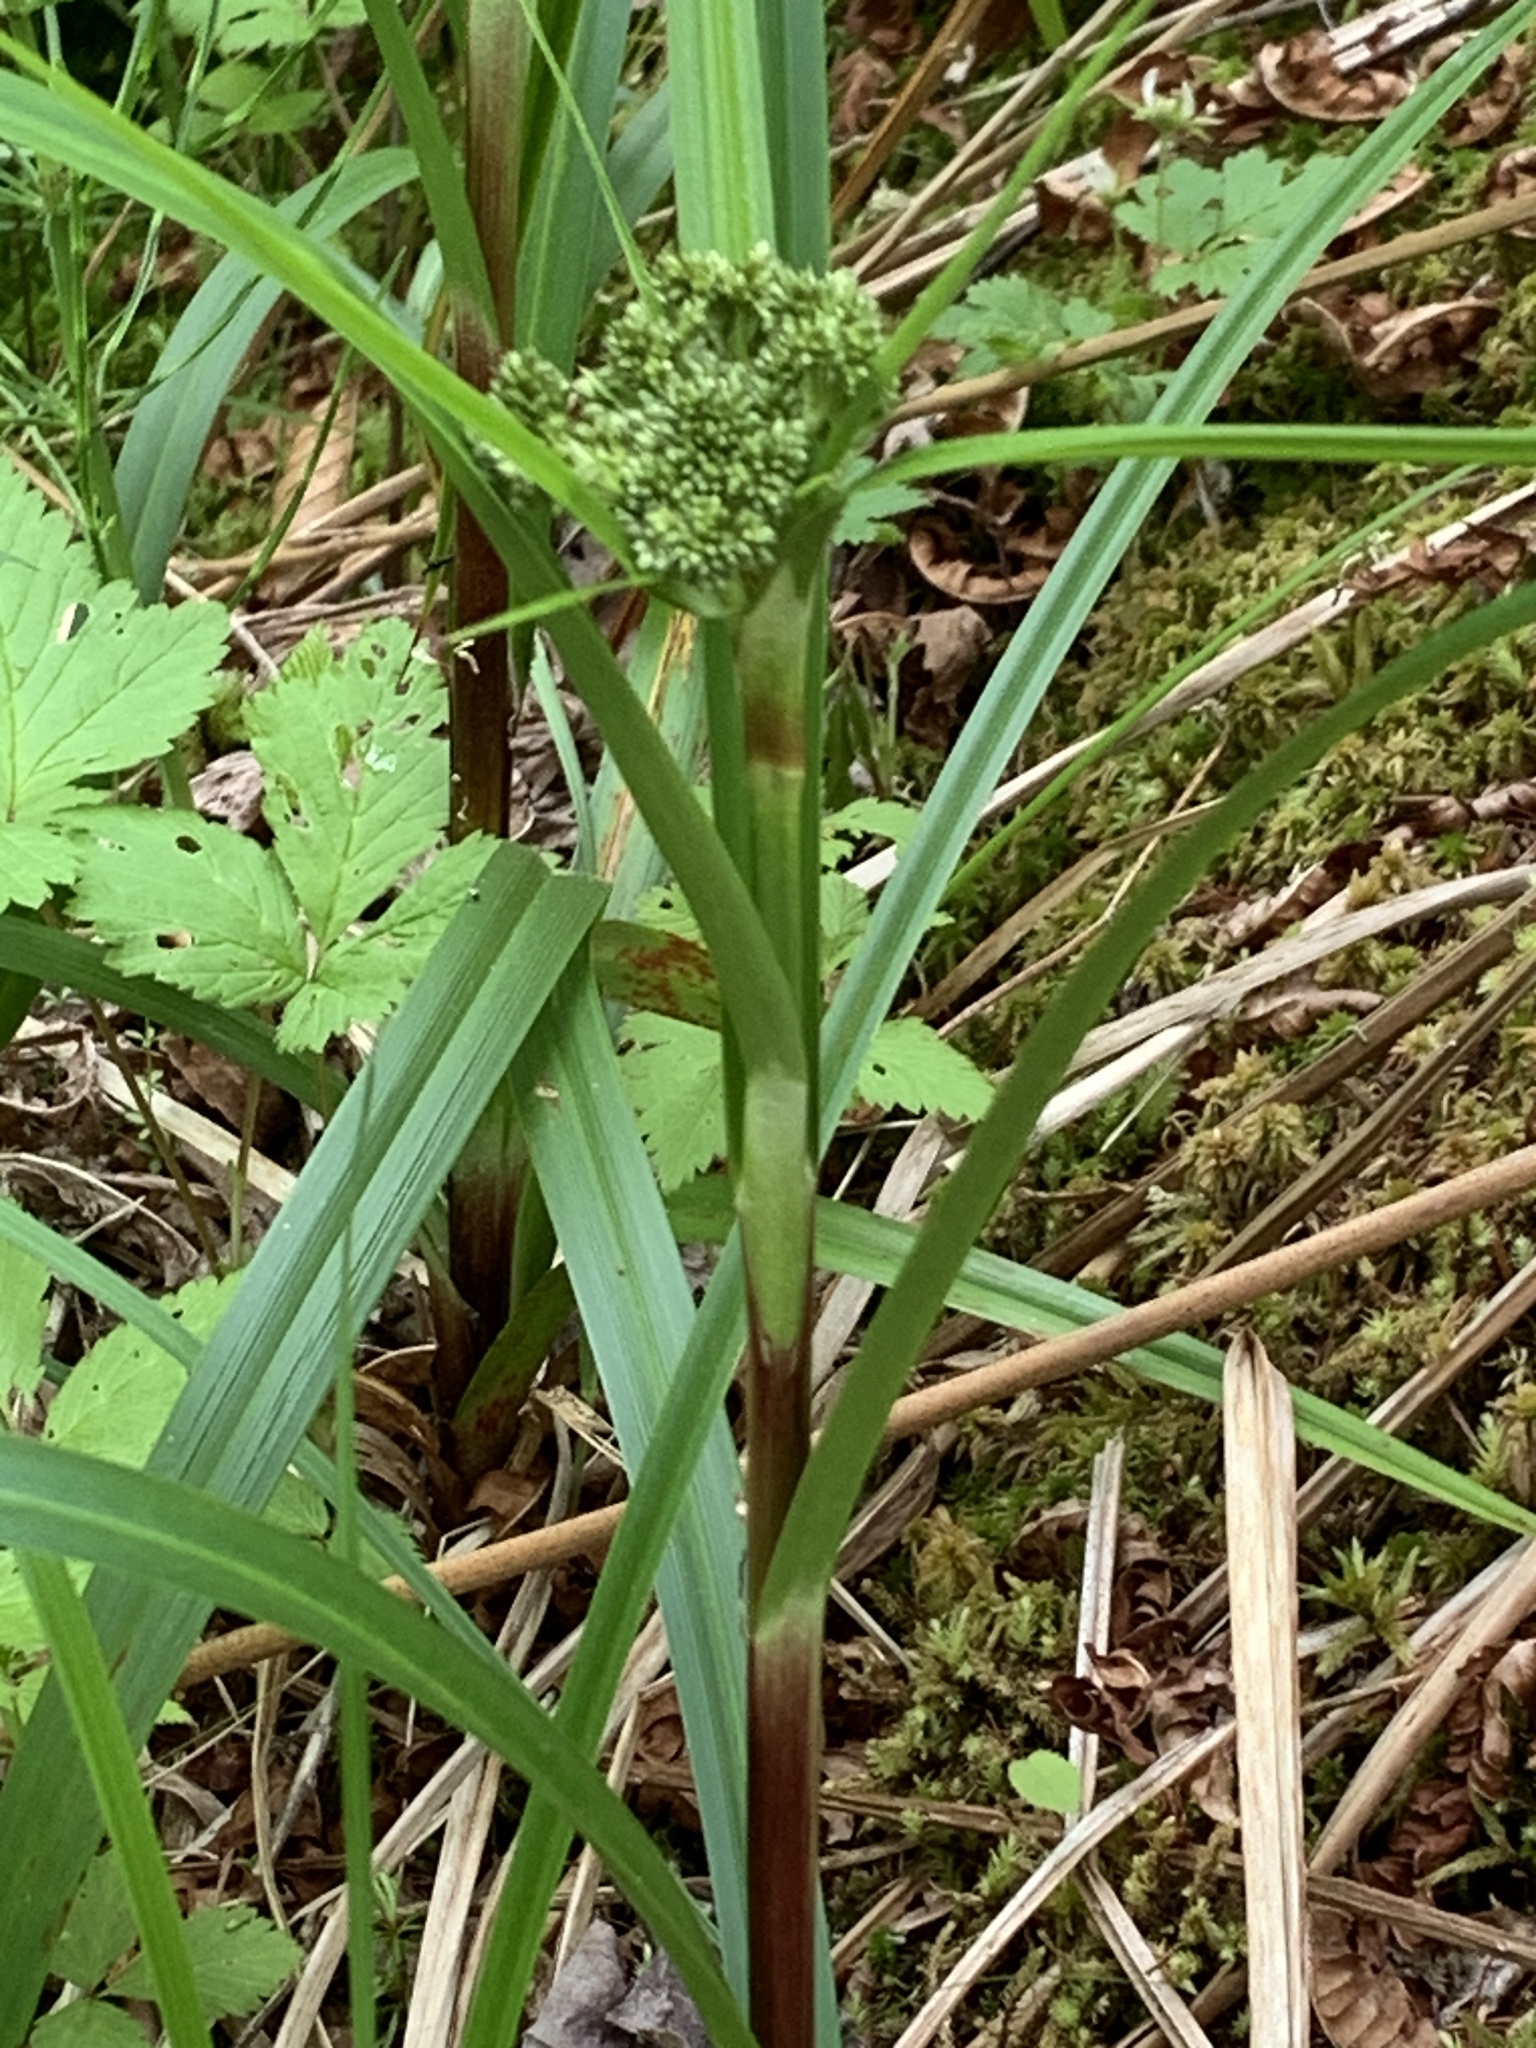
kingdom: Plantae
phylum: Tracheophyta
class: Liliopsida
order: Poales
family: Cyperaceae
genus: Scirpus
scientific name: Scirpus microcarpus
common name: Panicled bulrush
